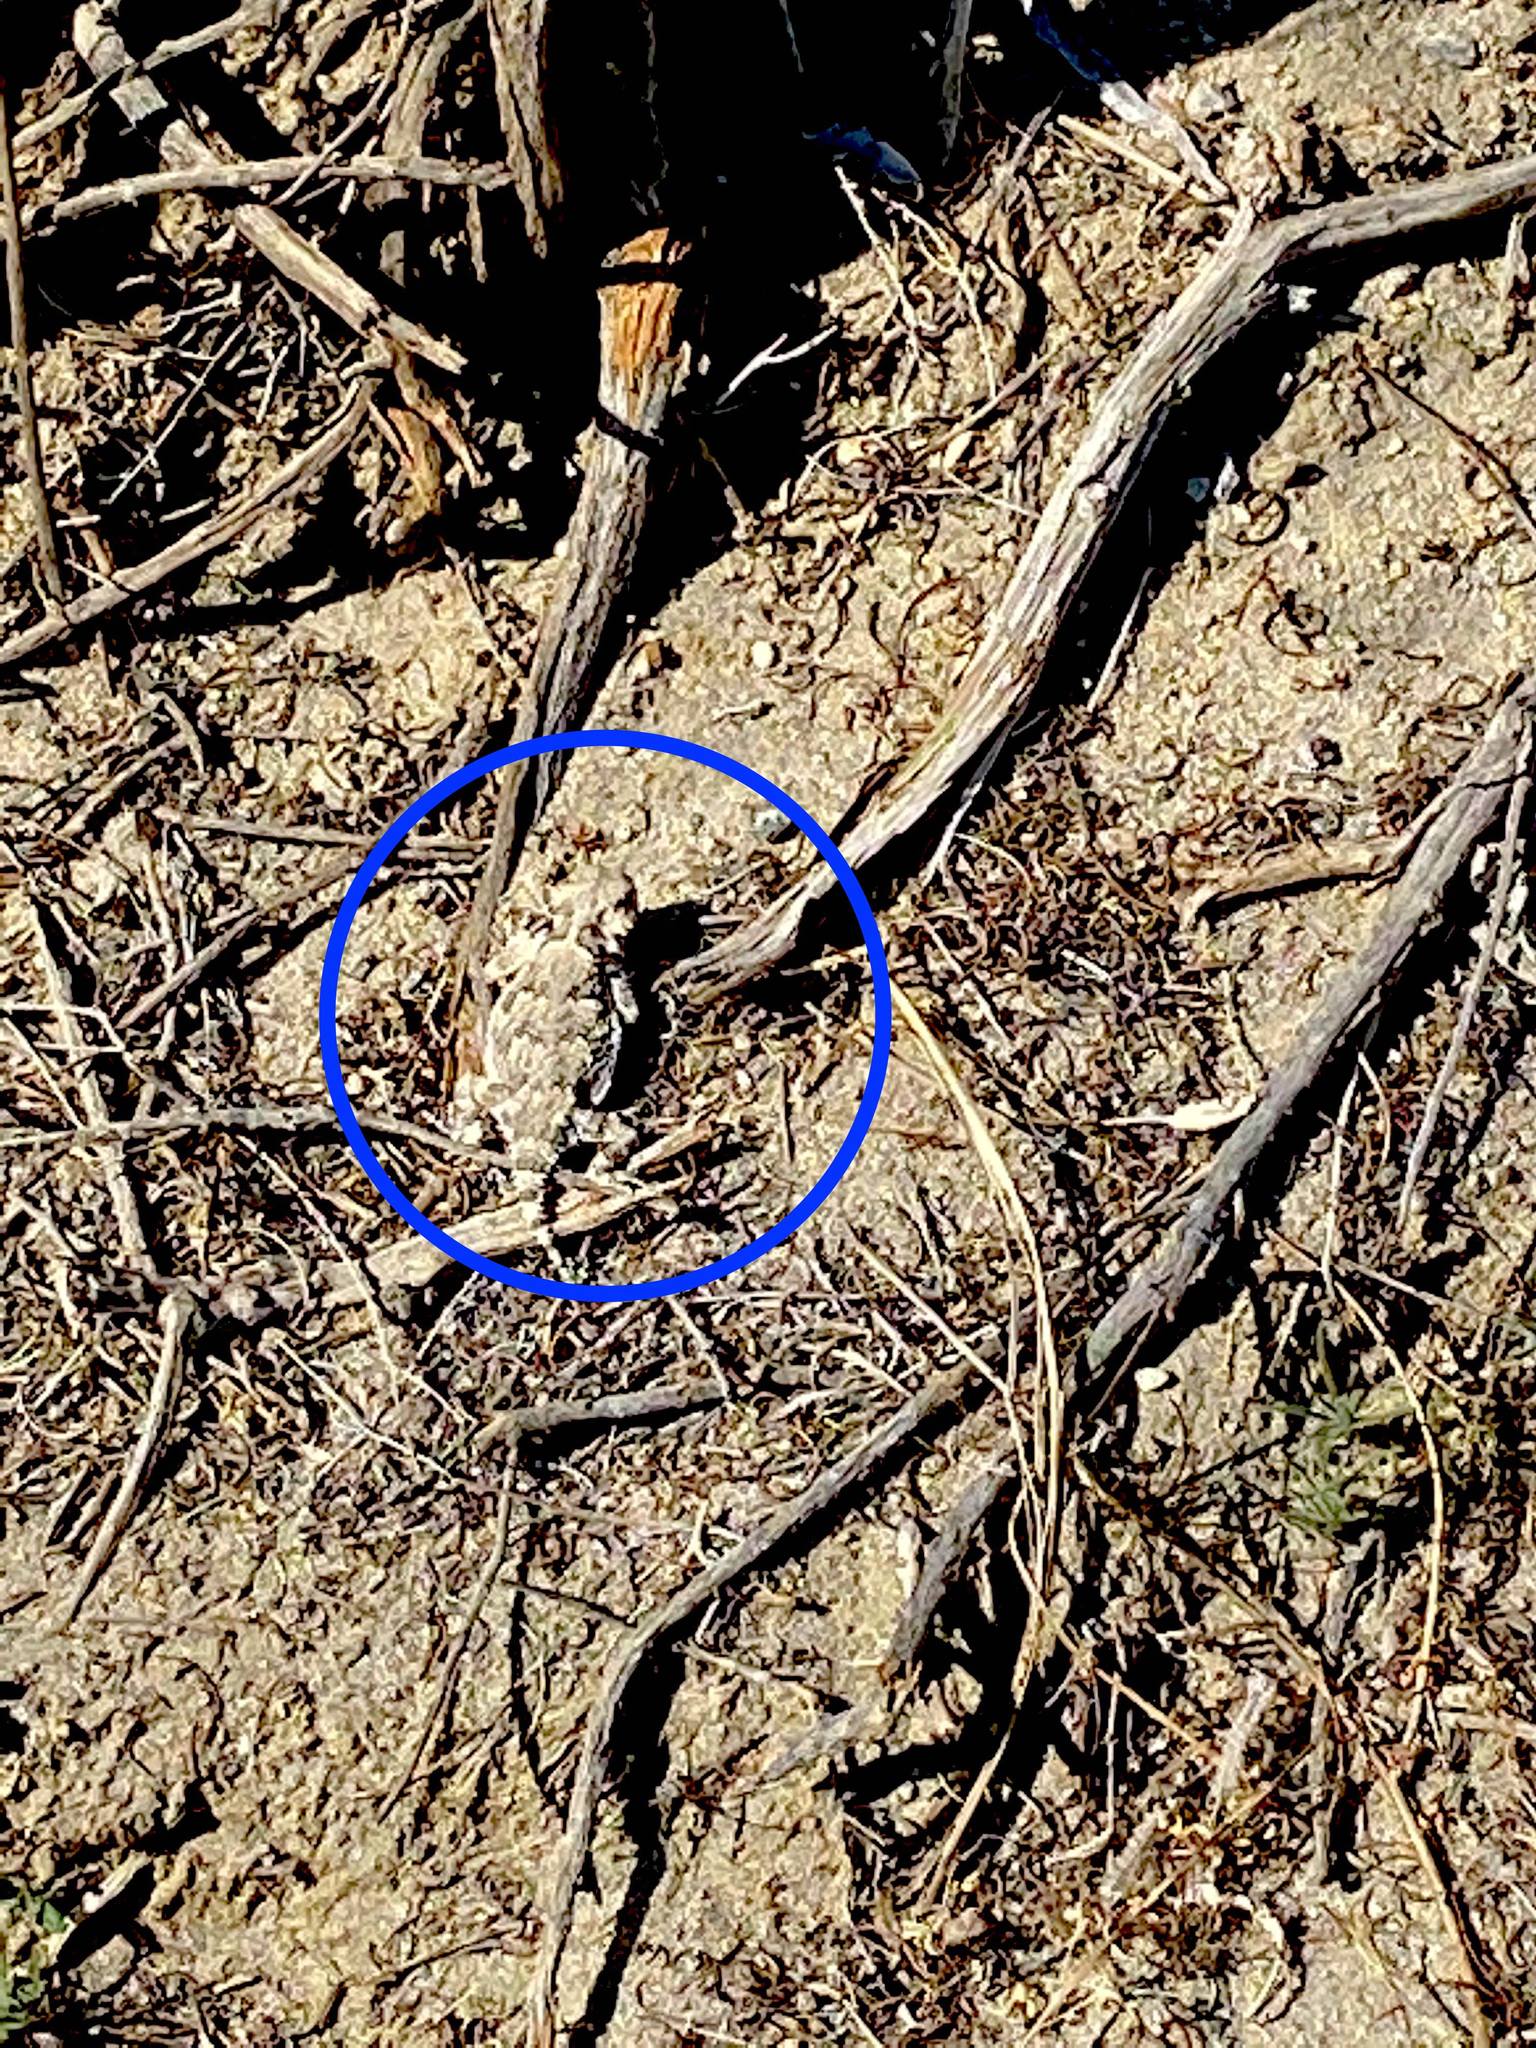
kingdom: Animalia
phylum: Chordata
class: Squamata
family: Phrynosomatidae
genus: Phrynosoma
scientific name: Phrynosoma platyrhinos
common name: Desert horned lizard
